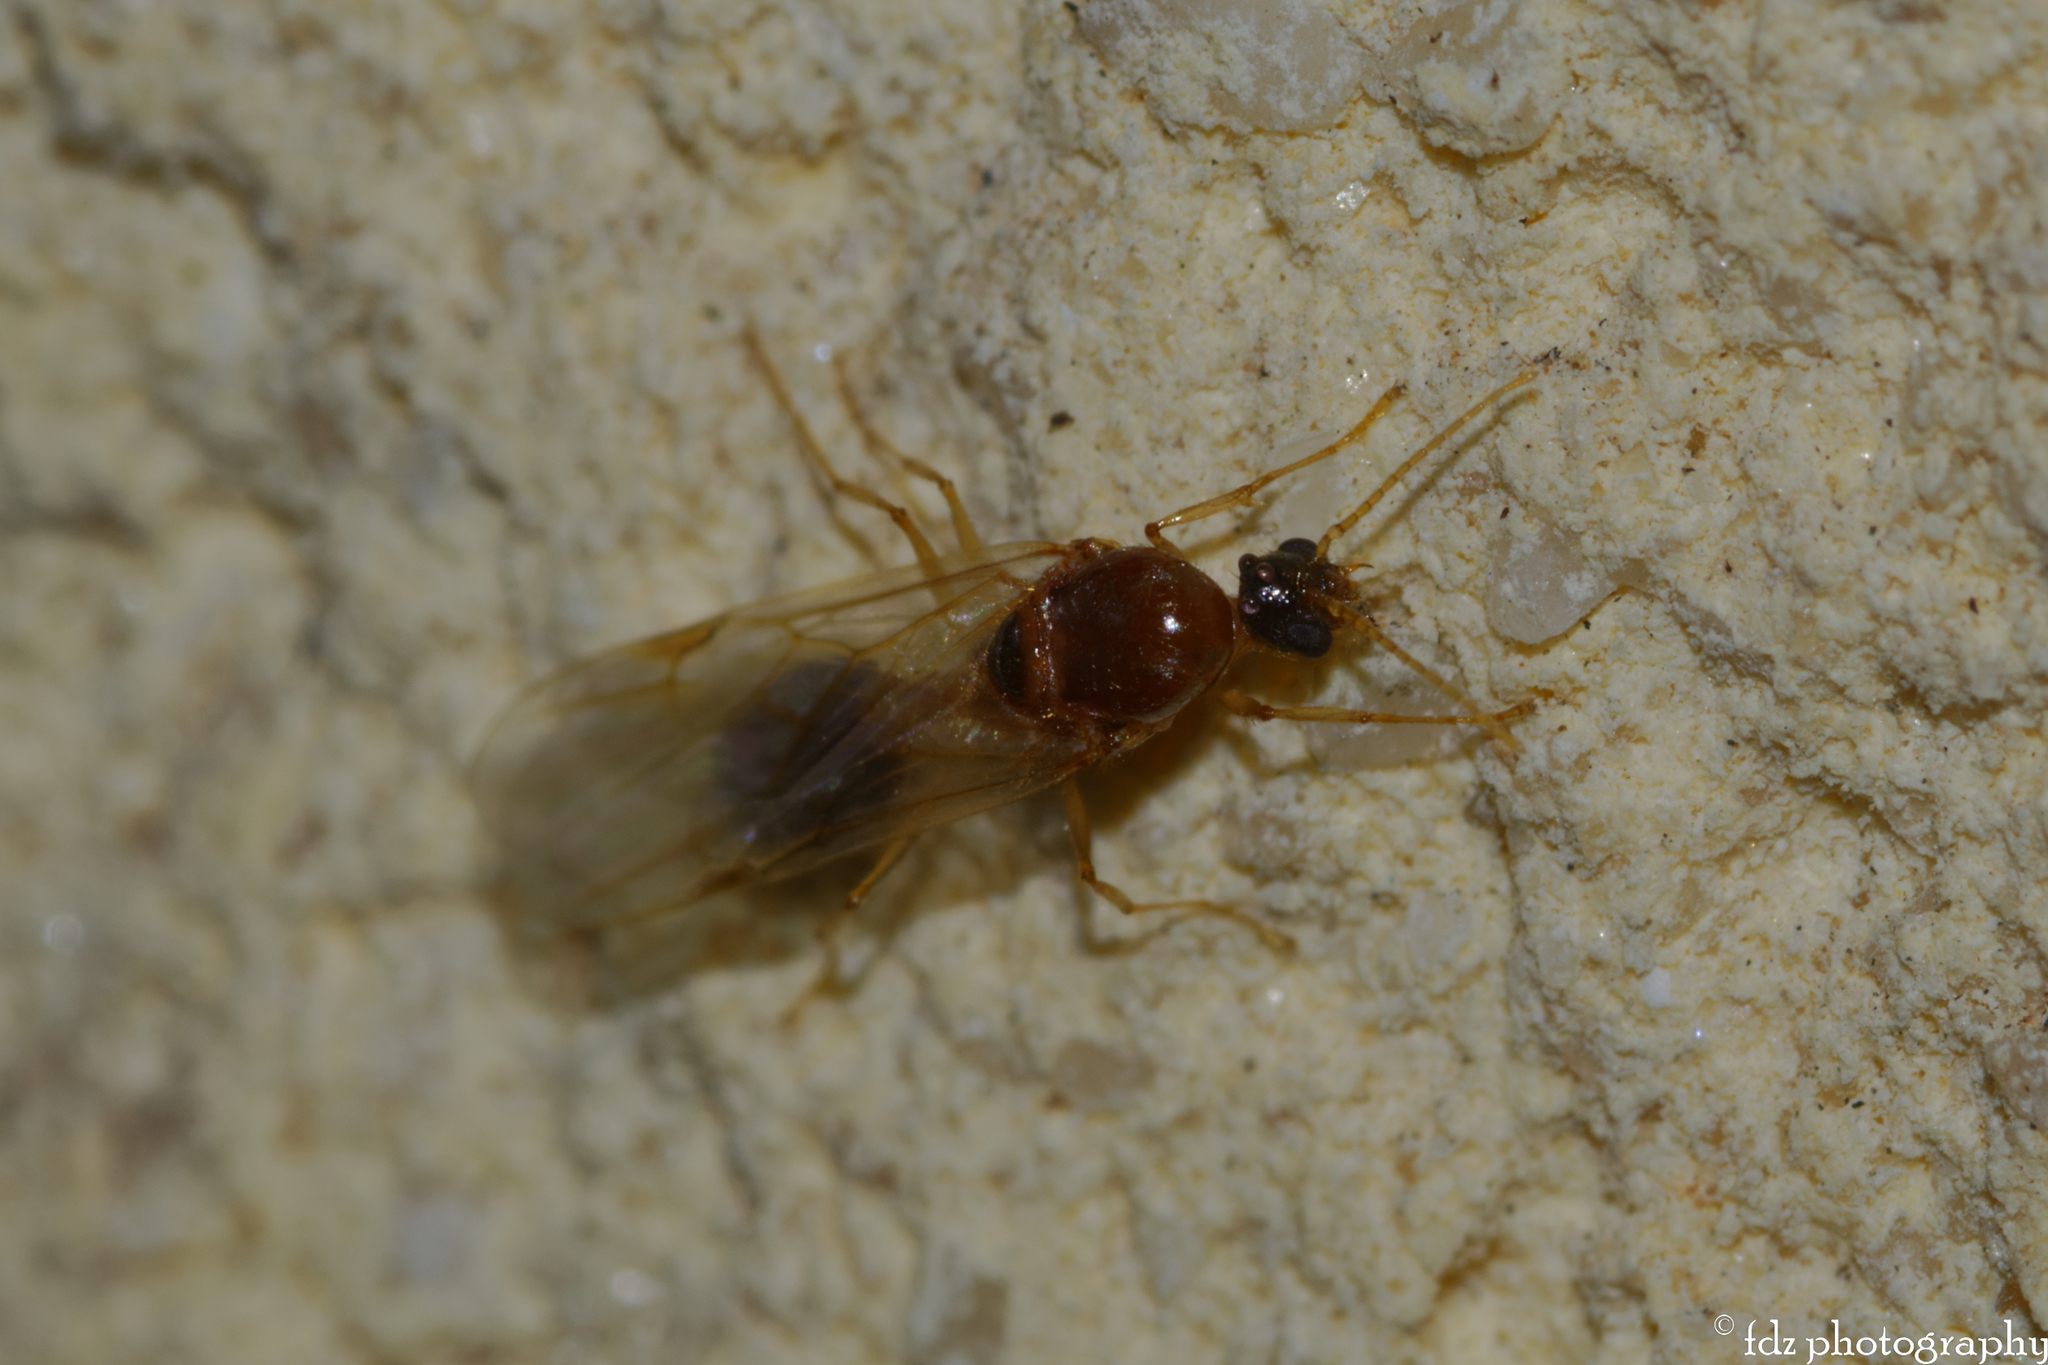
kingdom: Animalia
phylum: Arthropoda
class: Insecta
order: Hymenoptera
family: Formicidae
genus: Pheidole
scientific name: Pheidole pallidula
